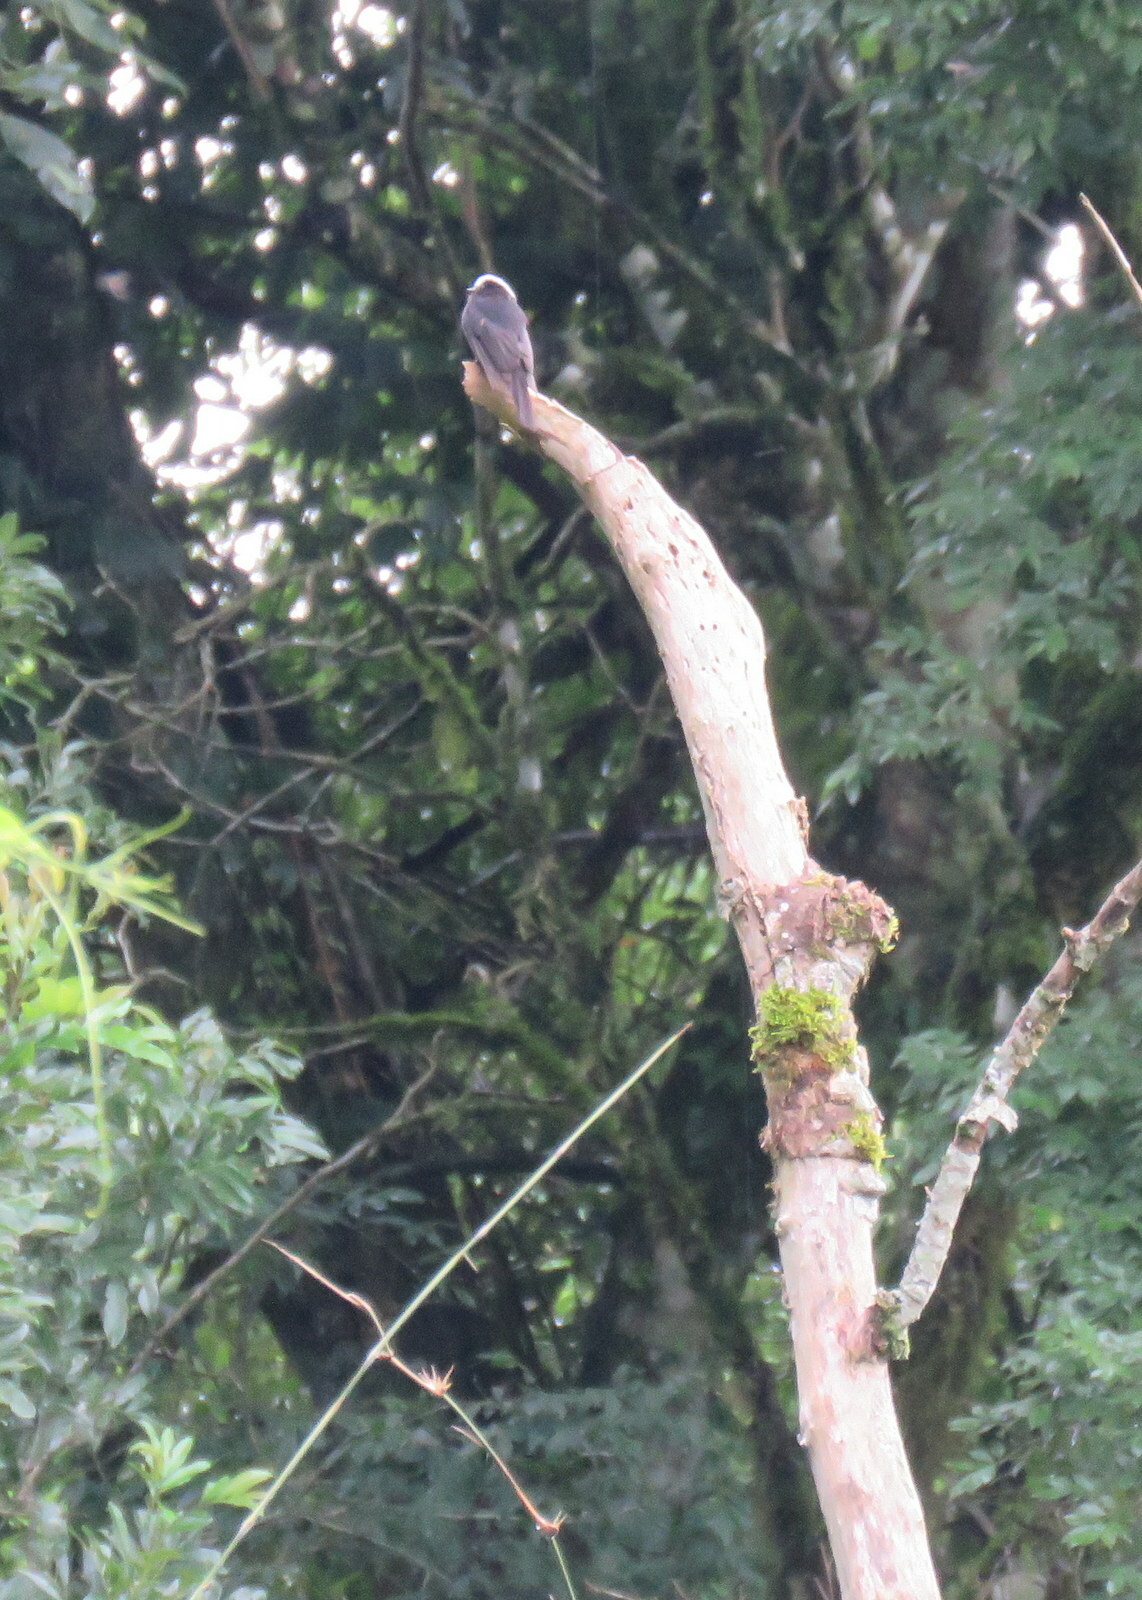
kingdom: Animalia
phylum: Chordata
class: Aves
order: Passeriformes
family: Tyrannidae
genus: Colonia
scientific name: Colonia colonus
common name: Long-tailed tyrant
